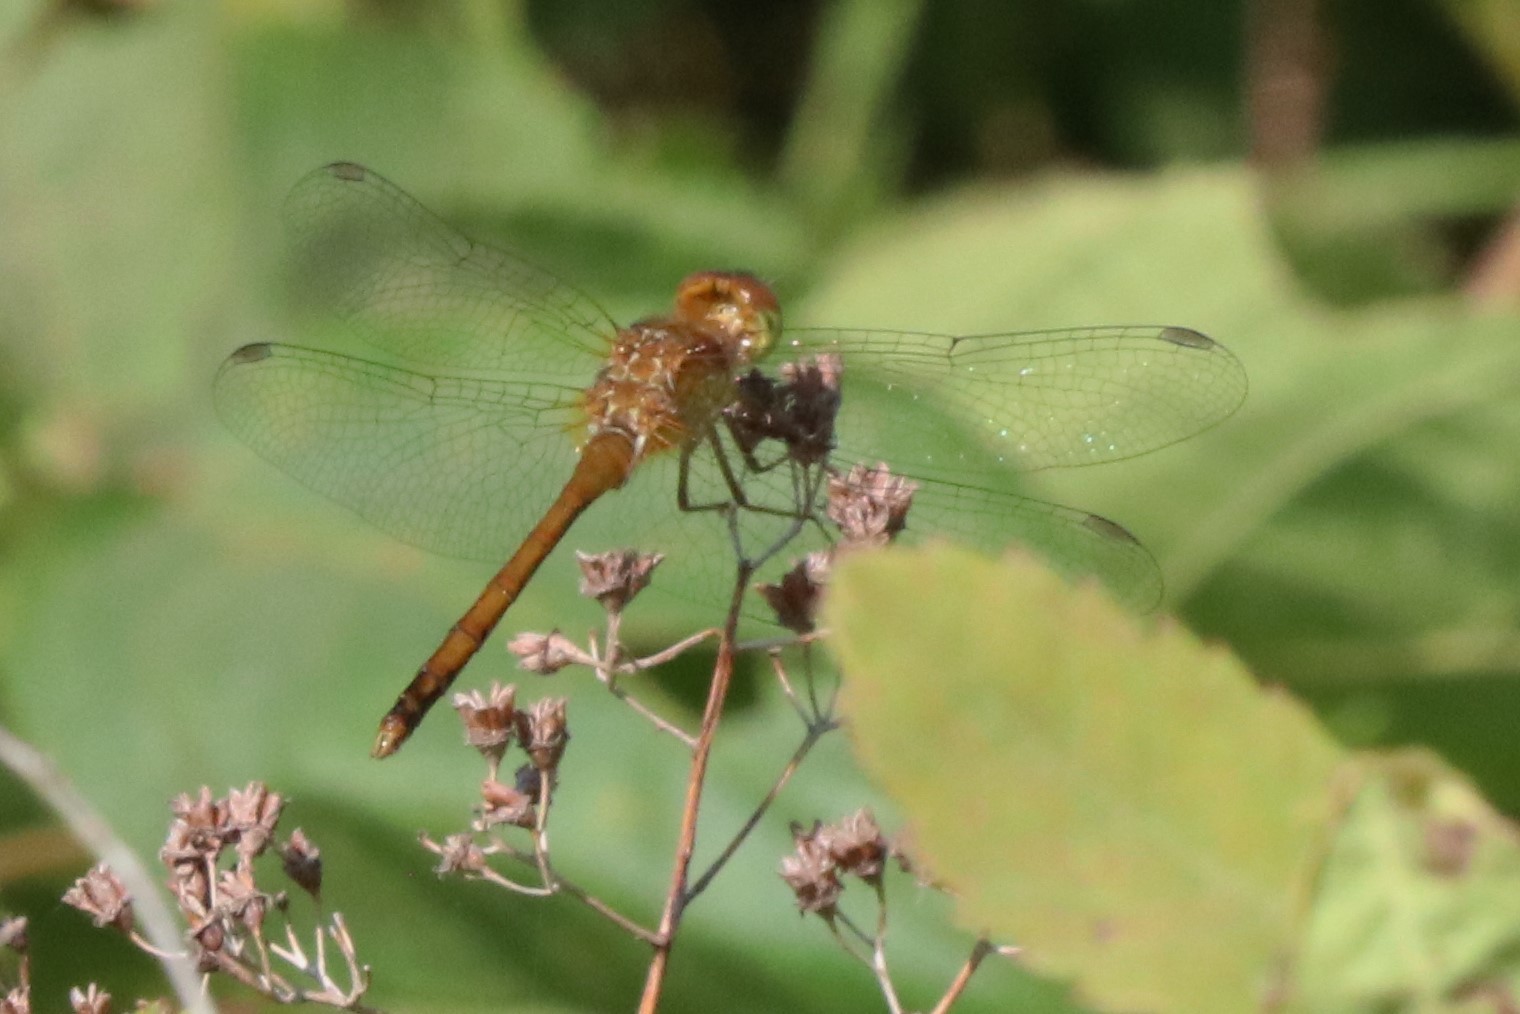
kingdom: Animalia
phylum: Arthropoda
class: Insecta
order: Odonata
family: Libellulidae
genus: Sympetrum
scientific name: Sympetrum vicinum
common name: Autumn meadowhawk
